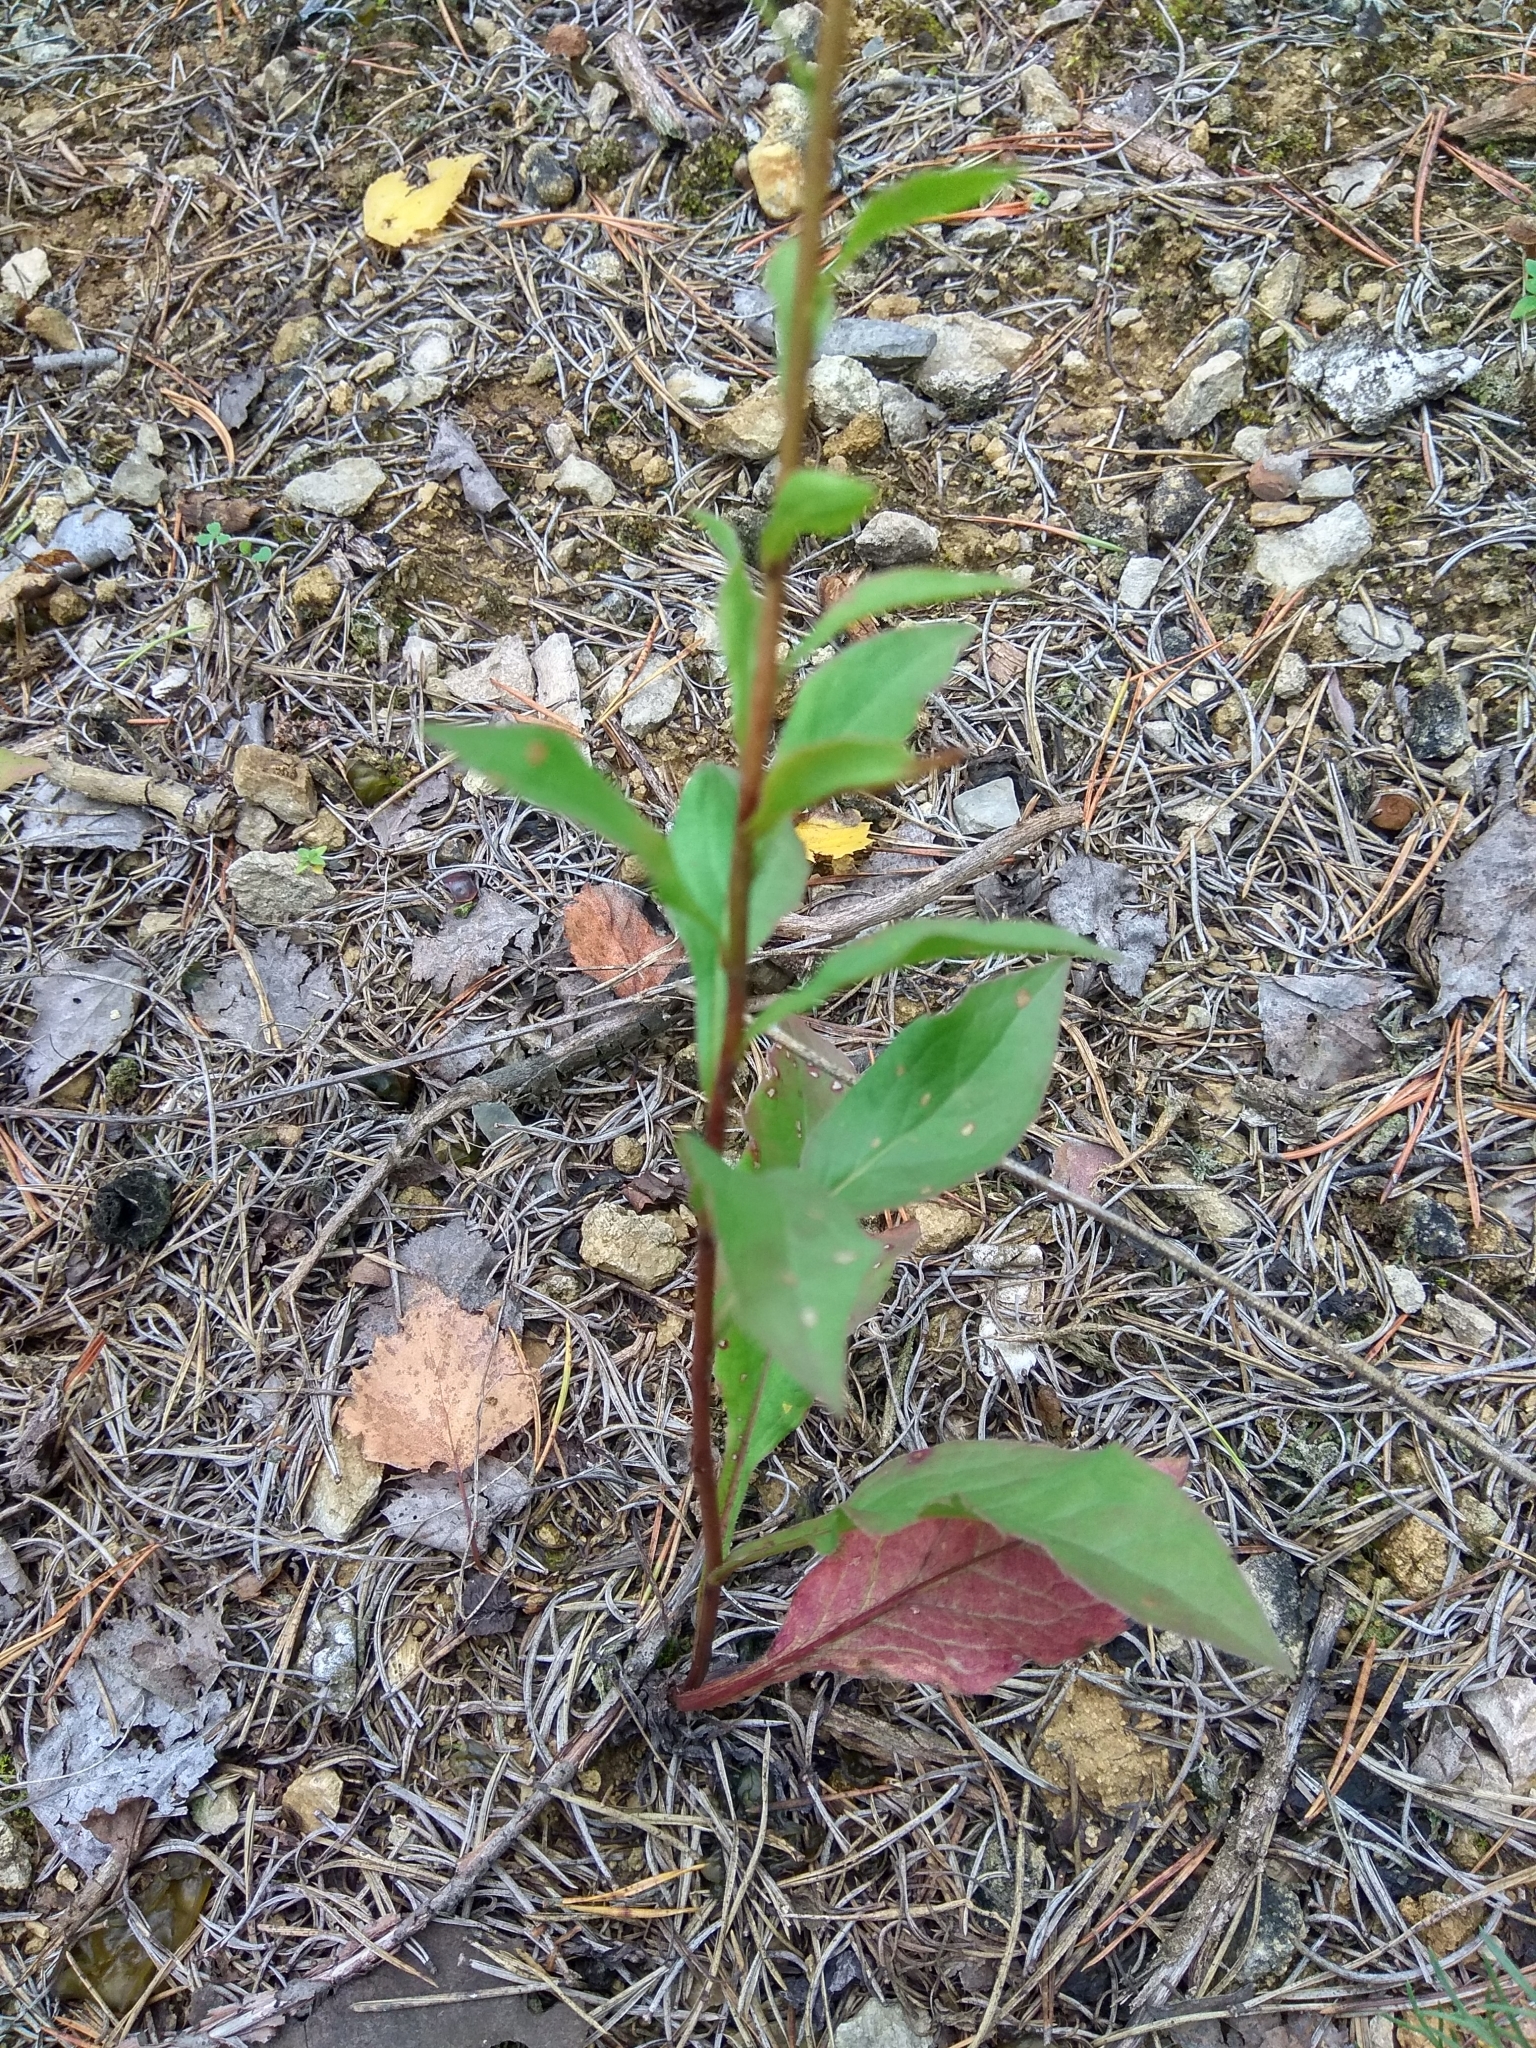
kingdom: Plantae
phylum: Tracheophyta
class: Magnoliopsida
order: Asterales
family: Asteraceae
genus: Solidago
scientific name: Solidago virgaurea
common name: Goldenrod
